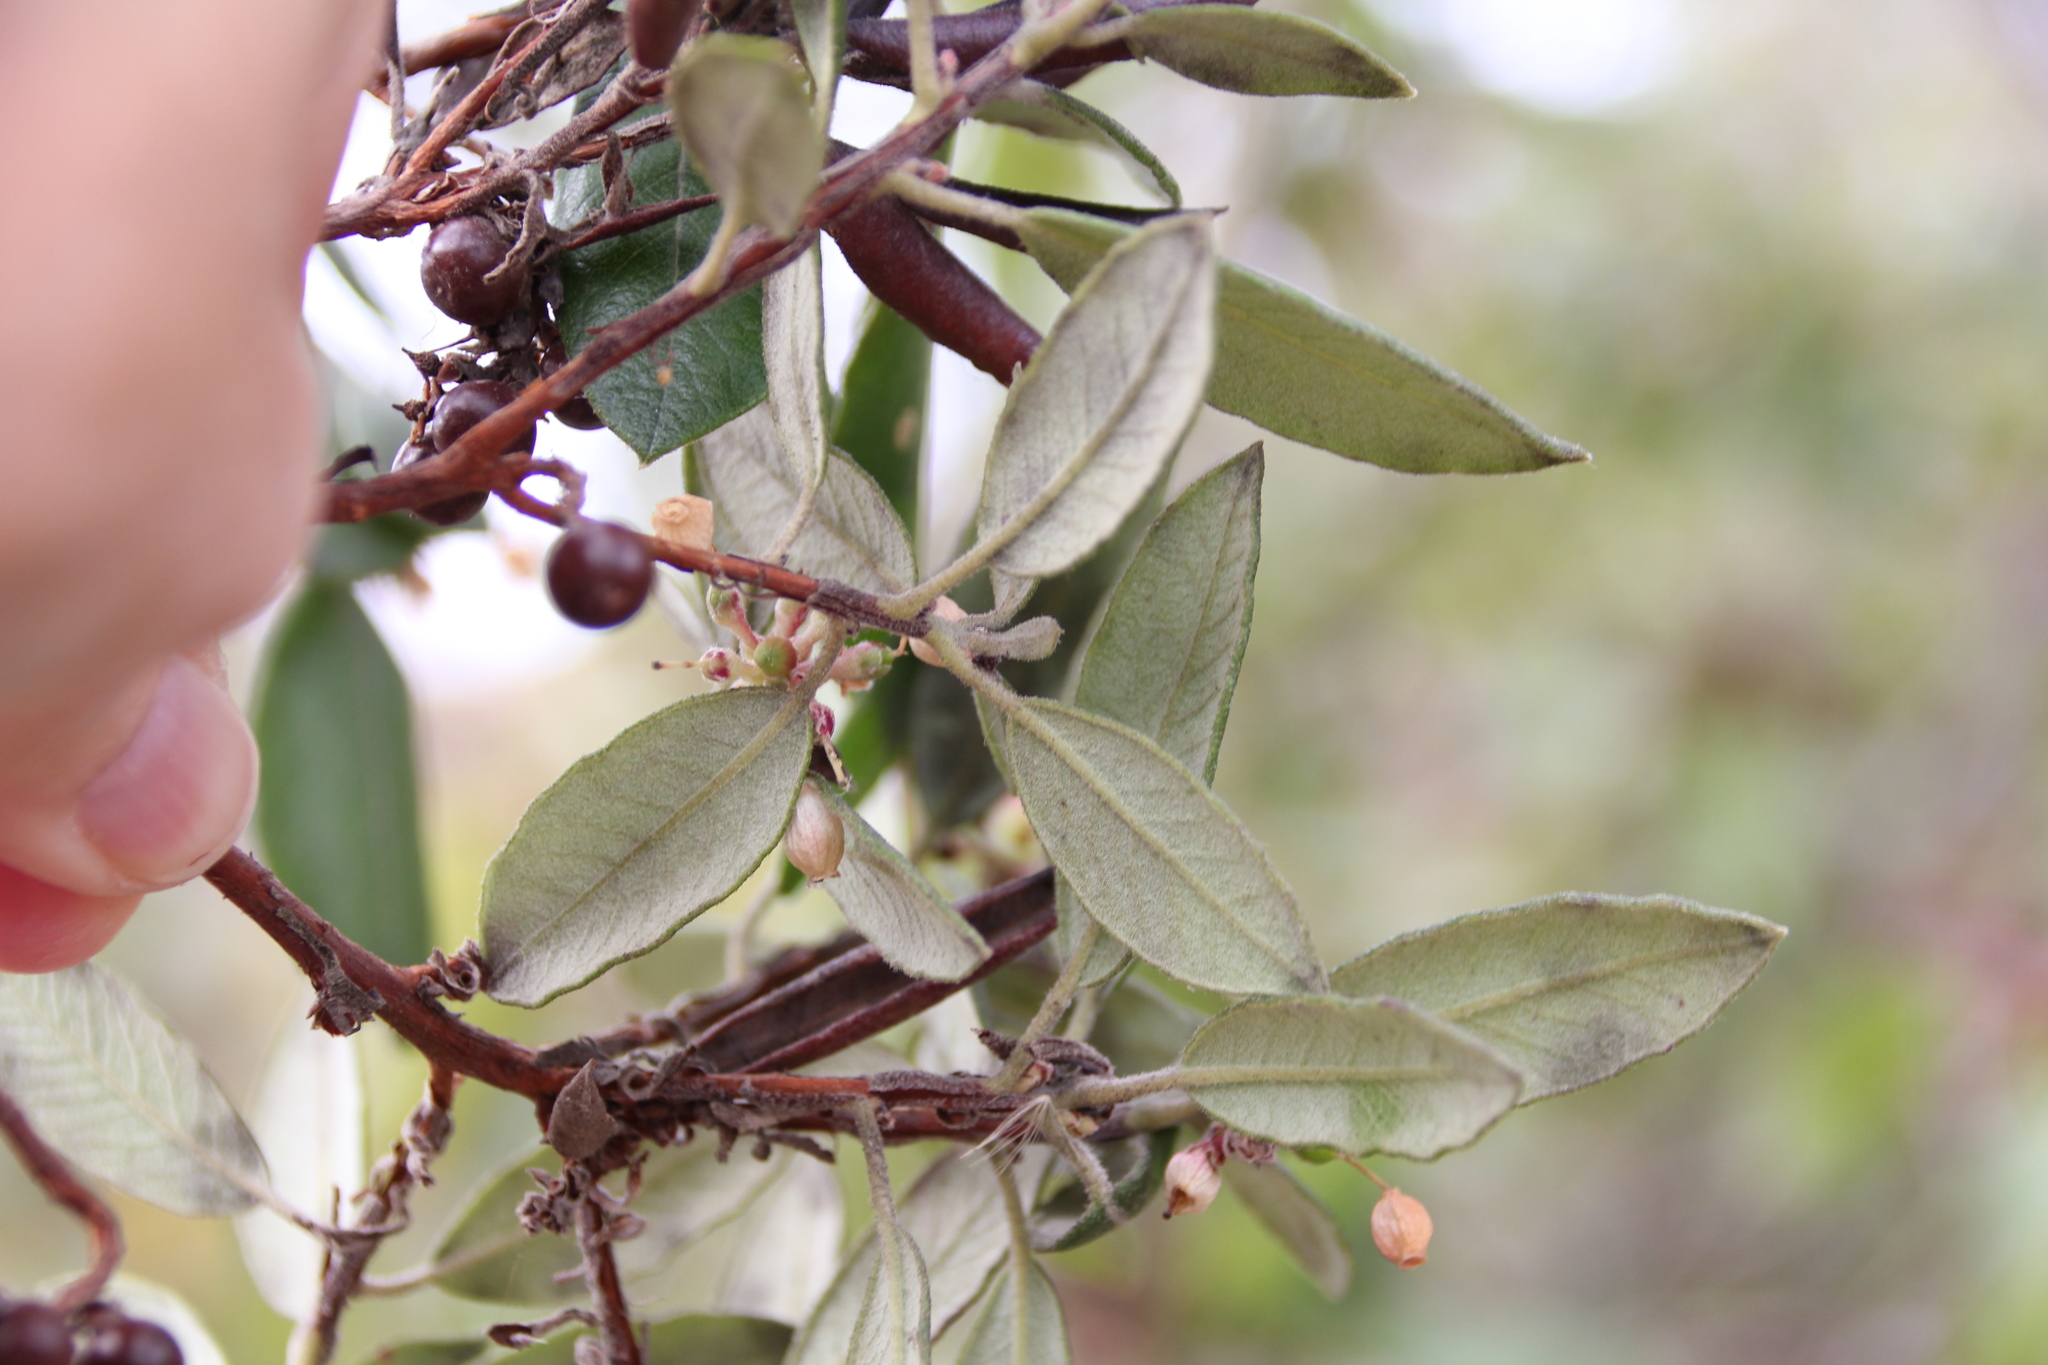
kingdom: Plantae
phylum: Tracheophyta
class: Magnoliopsida
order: Ericales
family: Ericaceae
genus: Arctostaphylos
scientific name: Arctostaphylos bicolor
